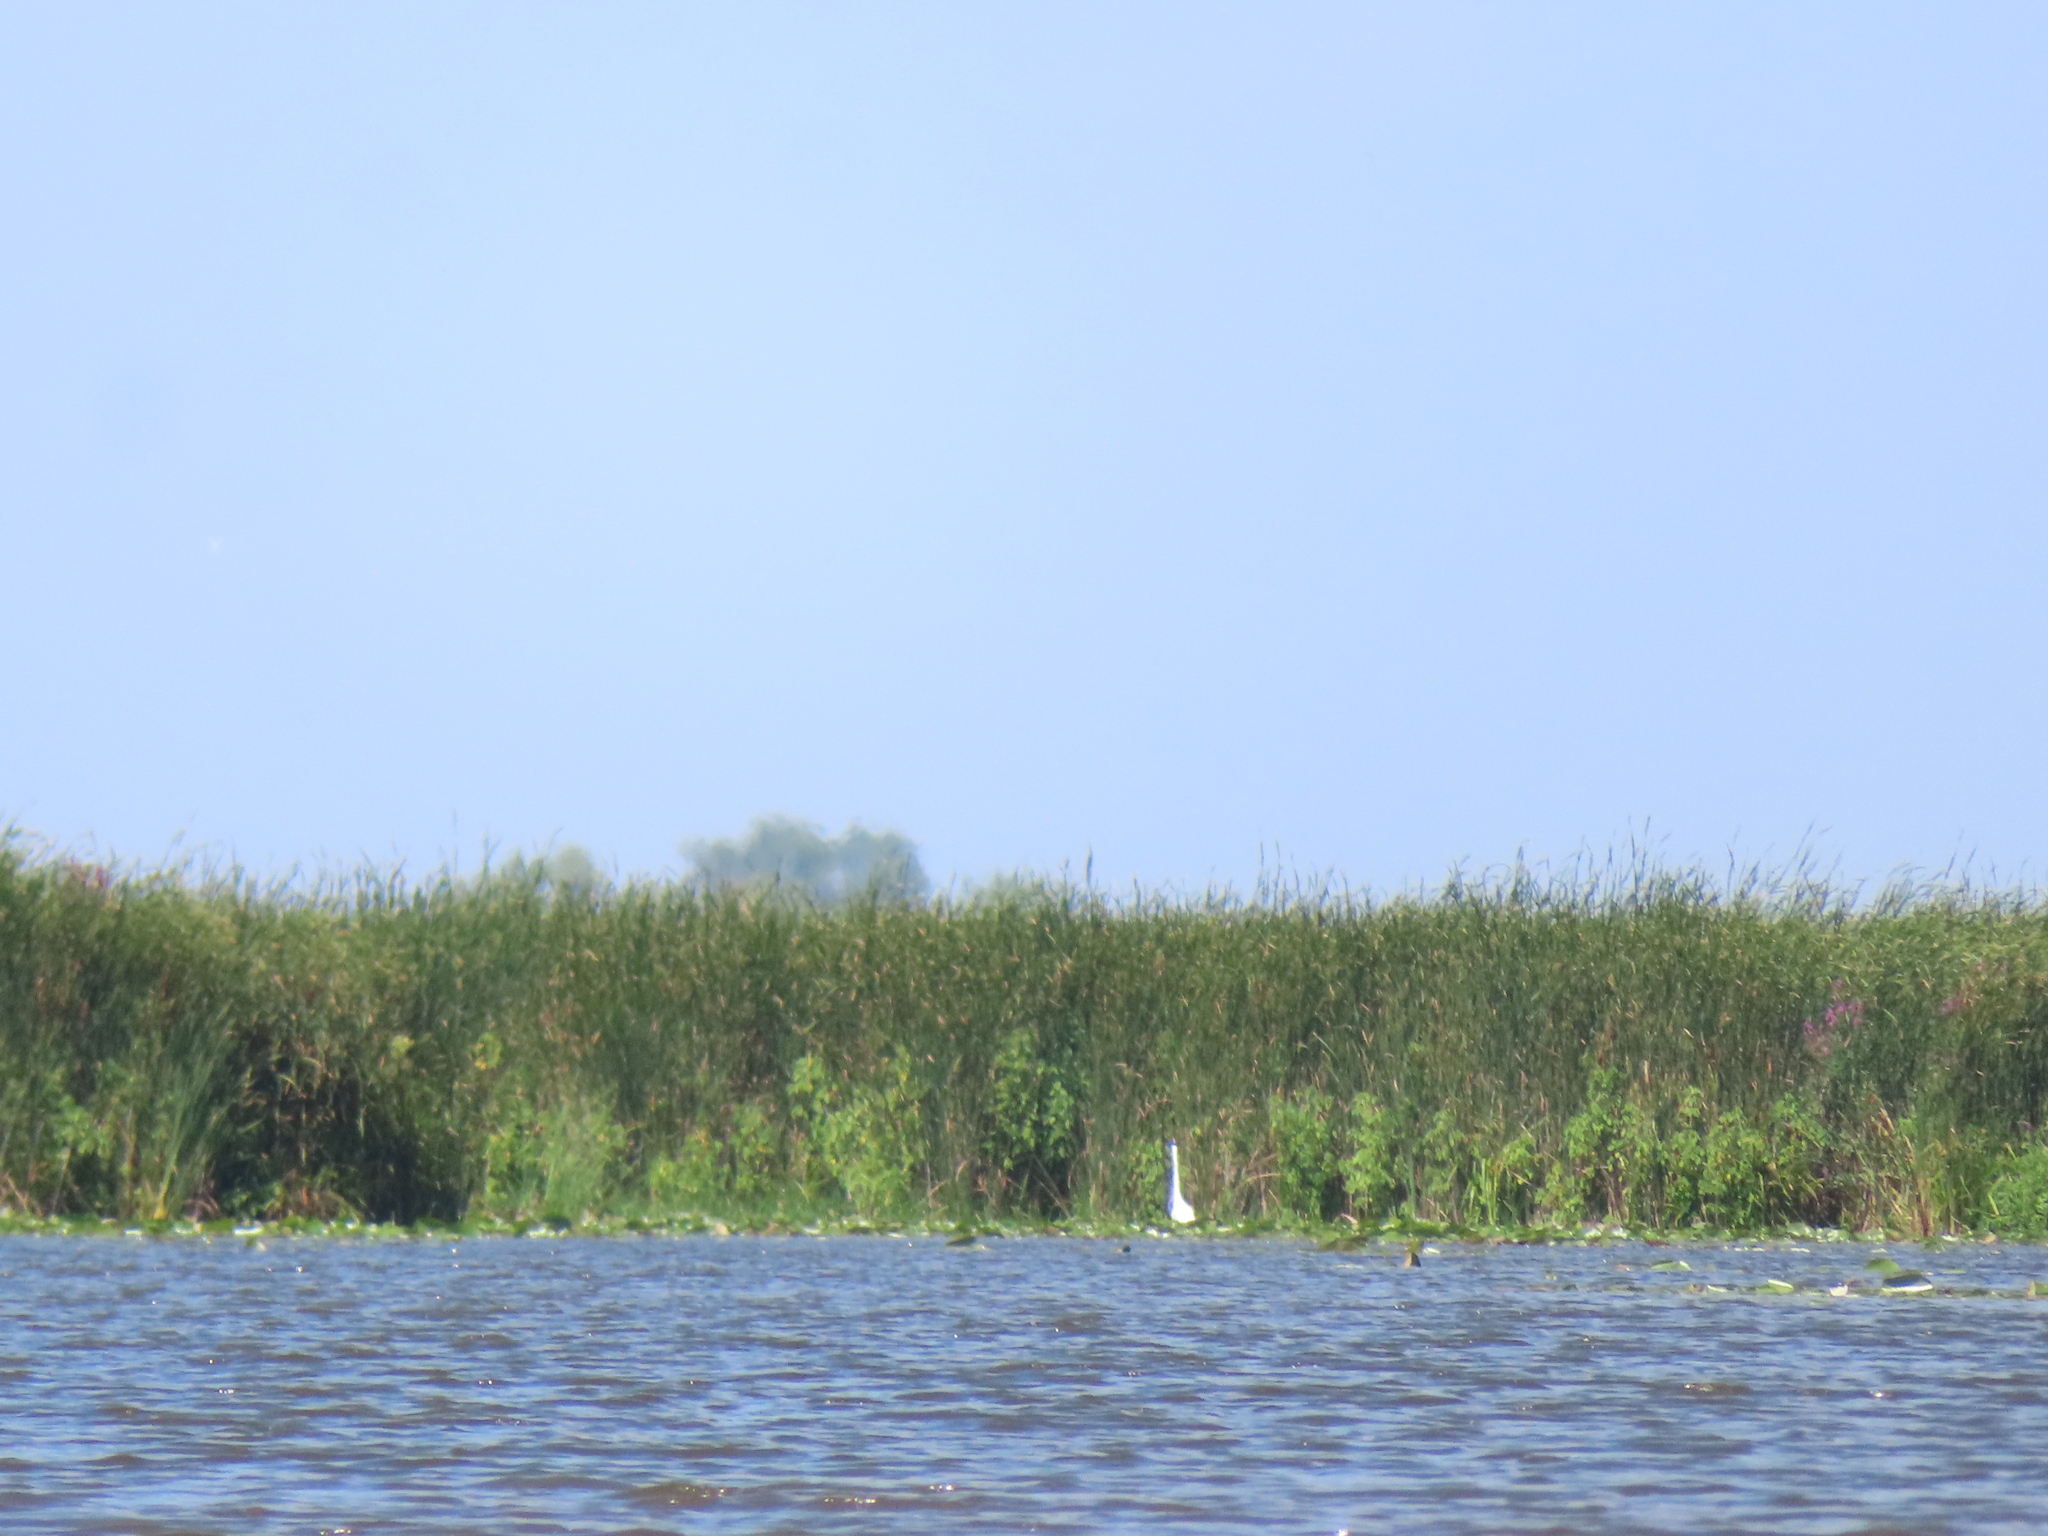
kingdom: Animalia
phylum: Chordata
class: Aves
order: Pelecaniformes
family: Ardeidae
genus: Ardea
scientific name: Ardea alba
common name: Great egret
